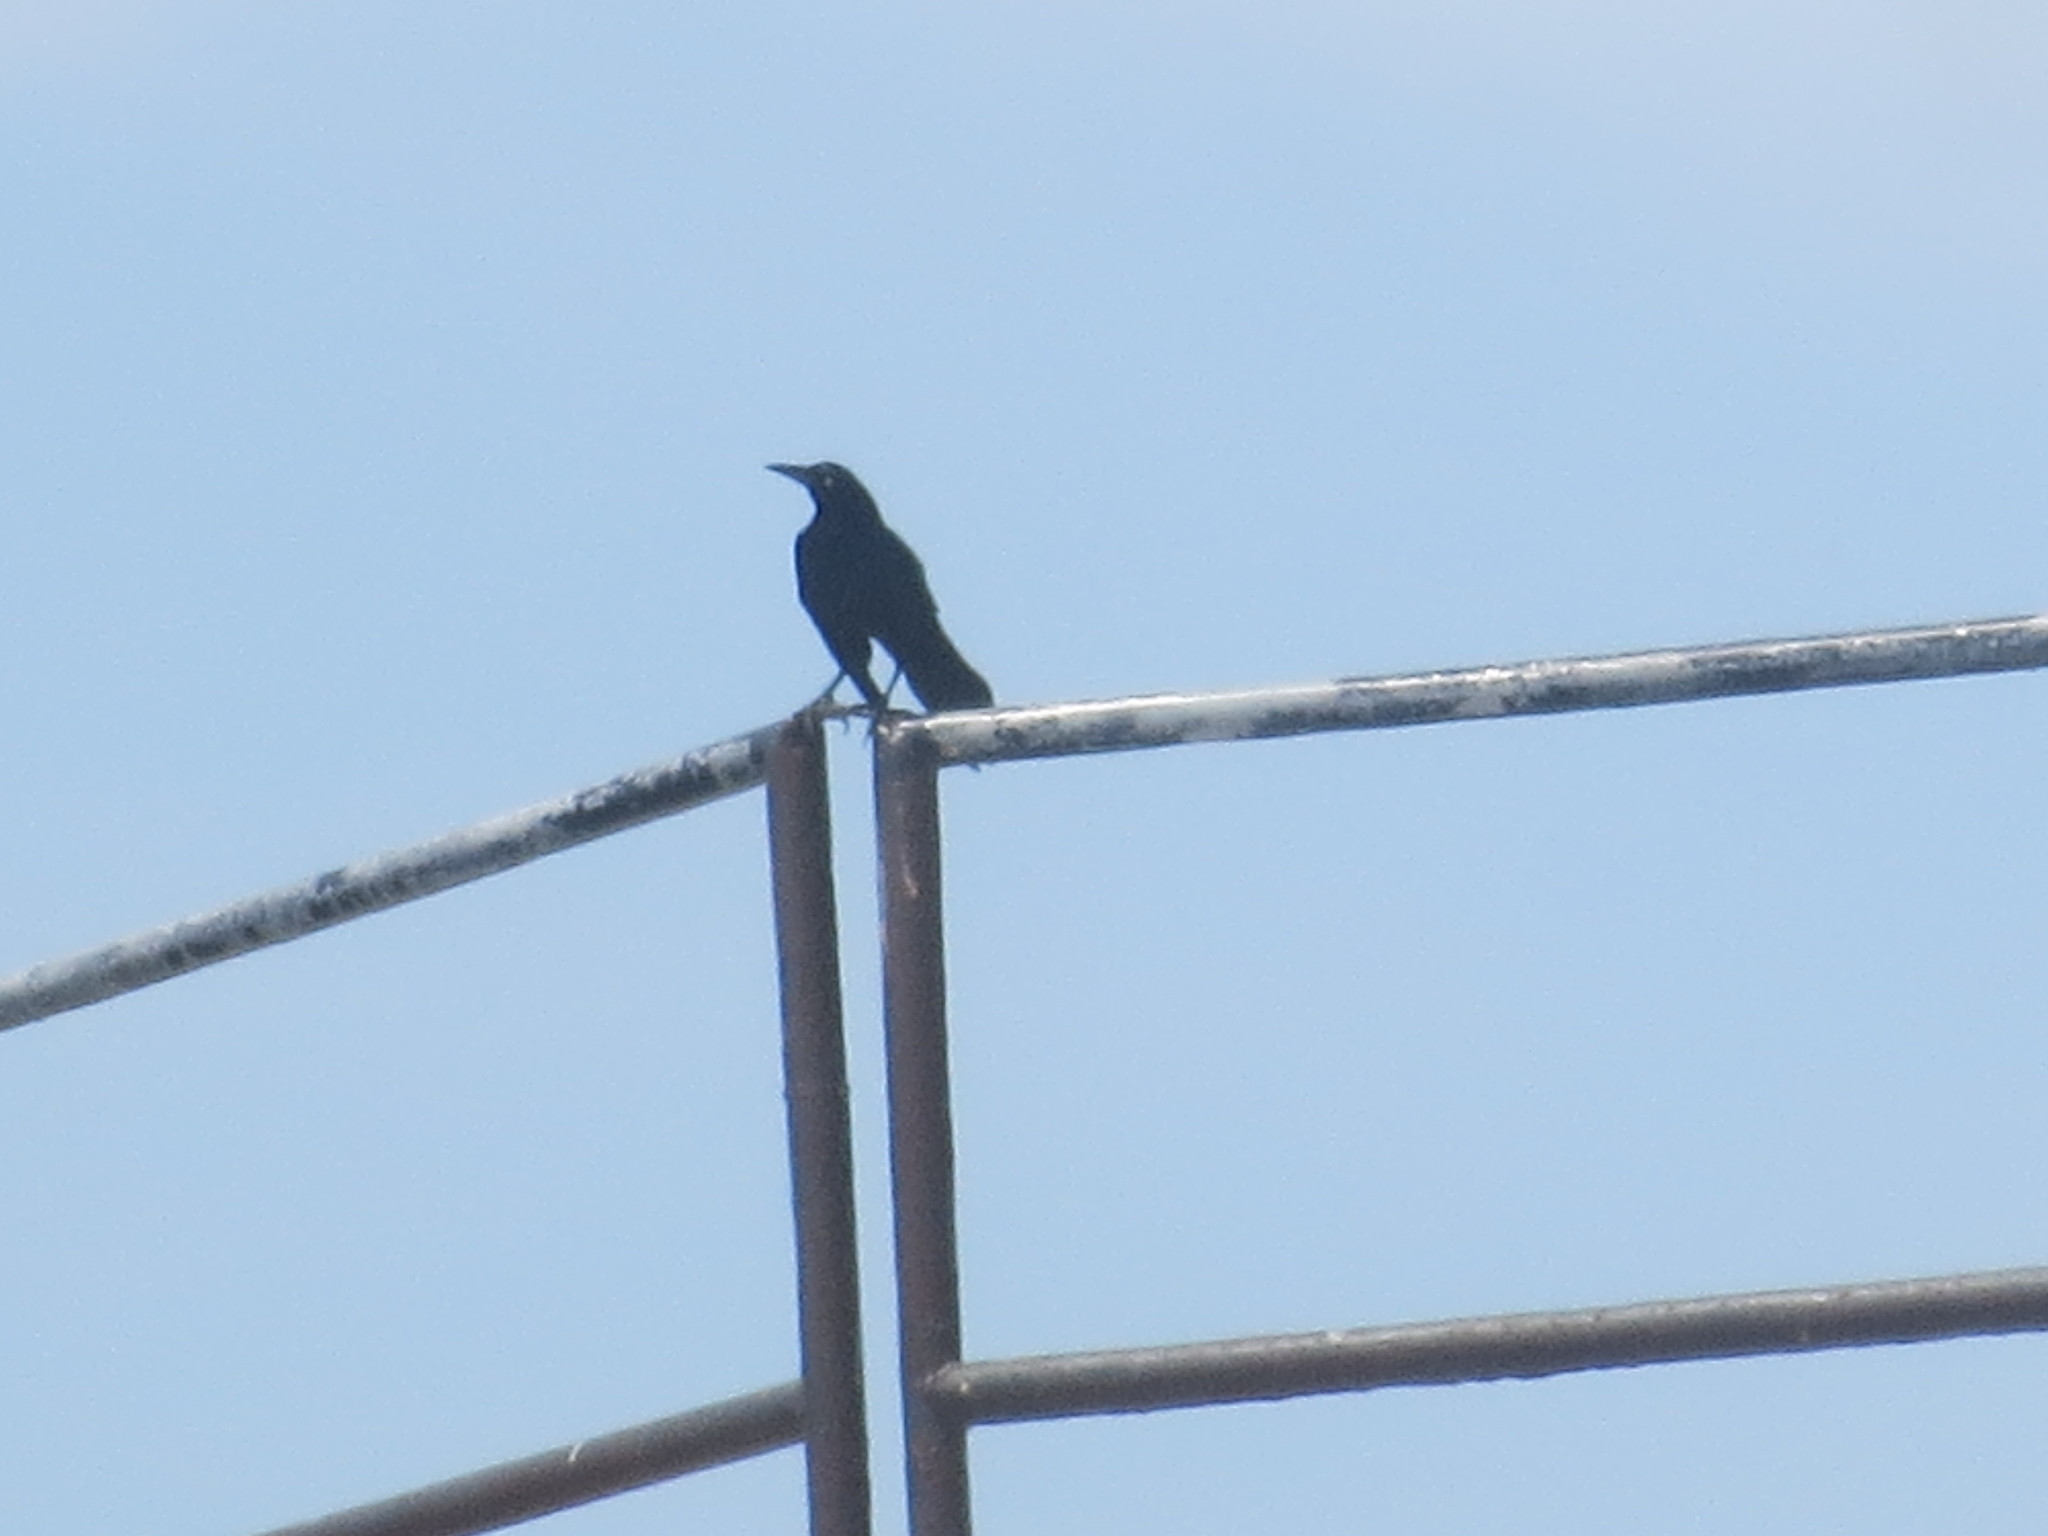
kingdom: Animalia
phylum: Chordata
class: Aves
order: Passeriformes
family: Icteridae
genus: Quiscalus
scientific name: Quiscalus major
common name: Boat-tailed grackle
